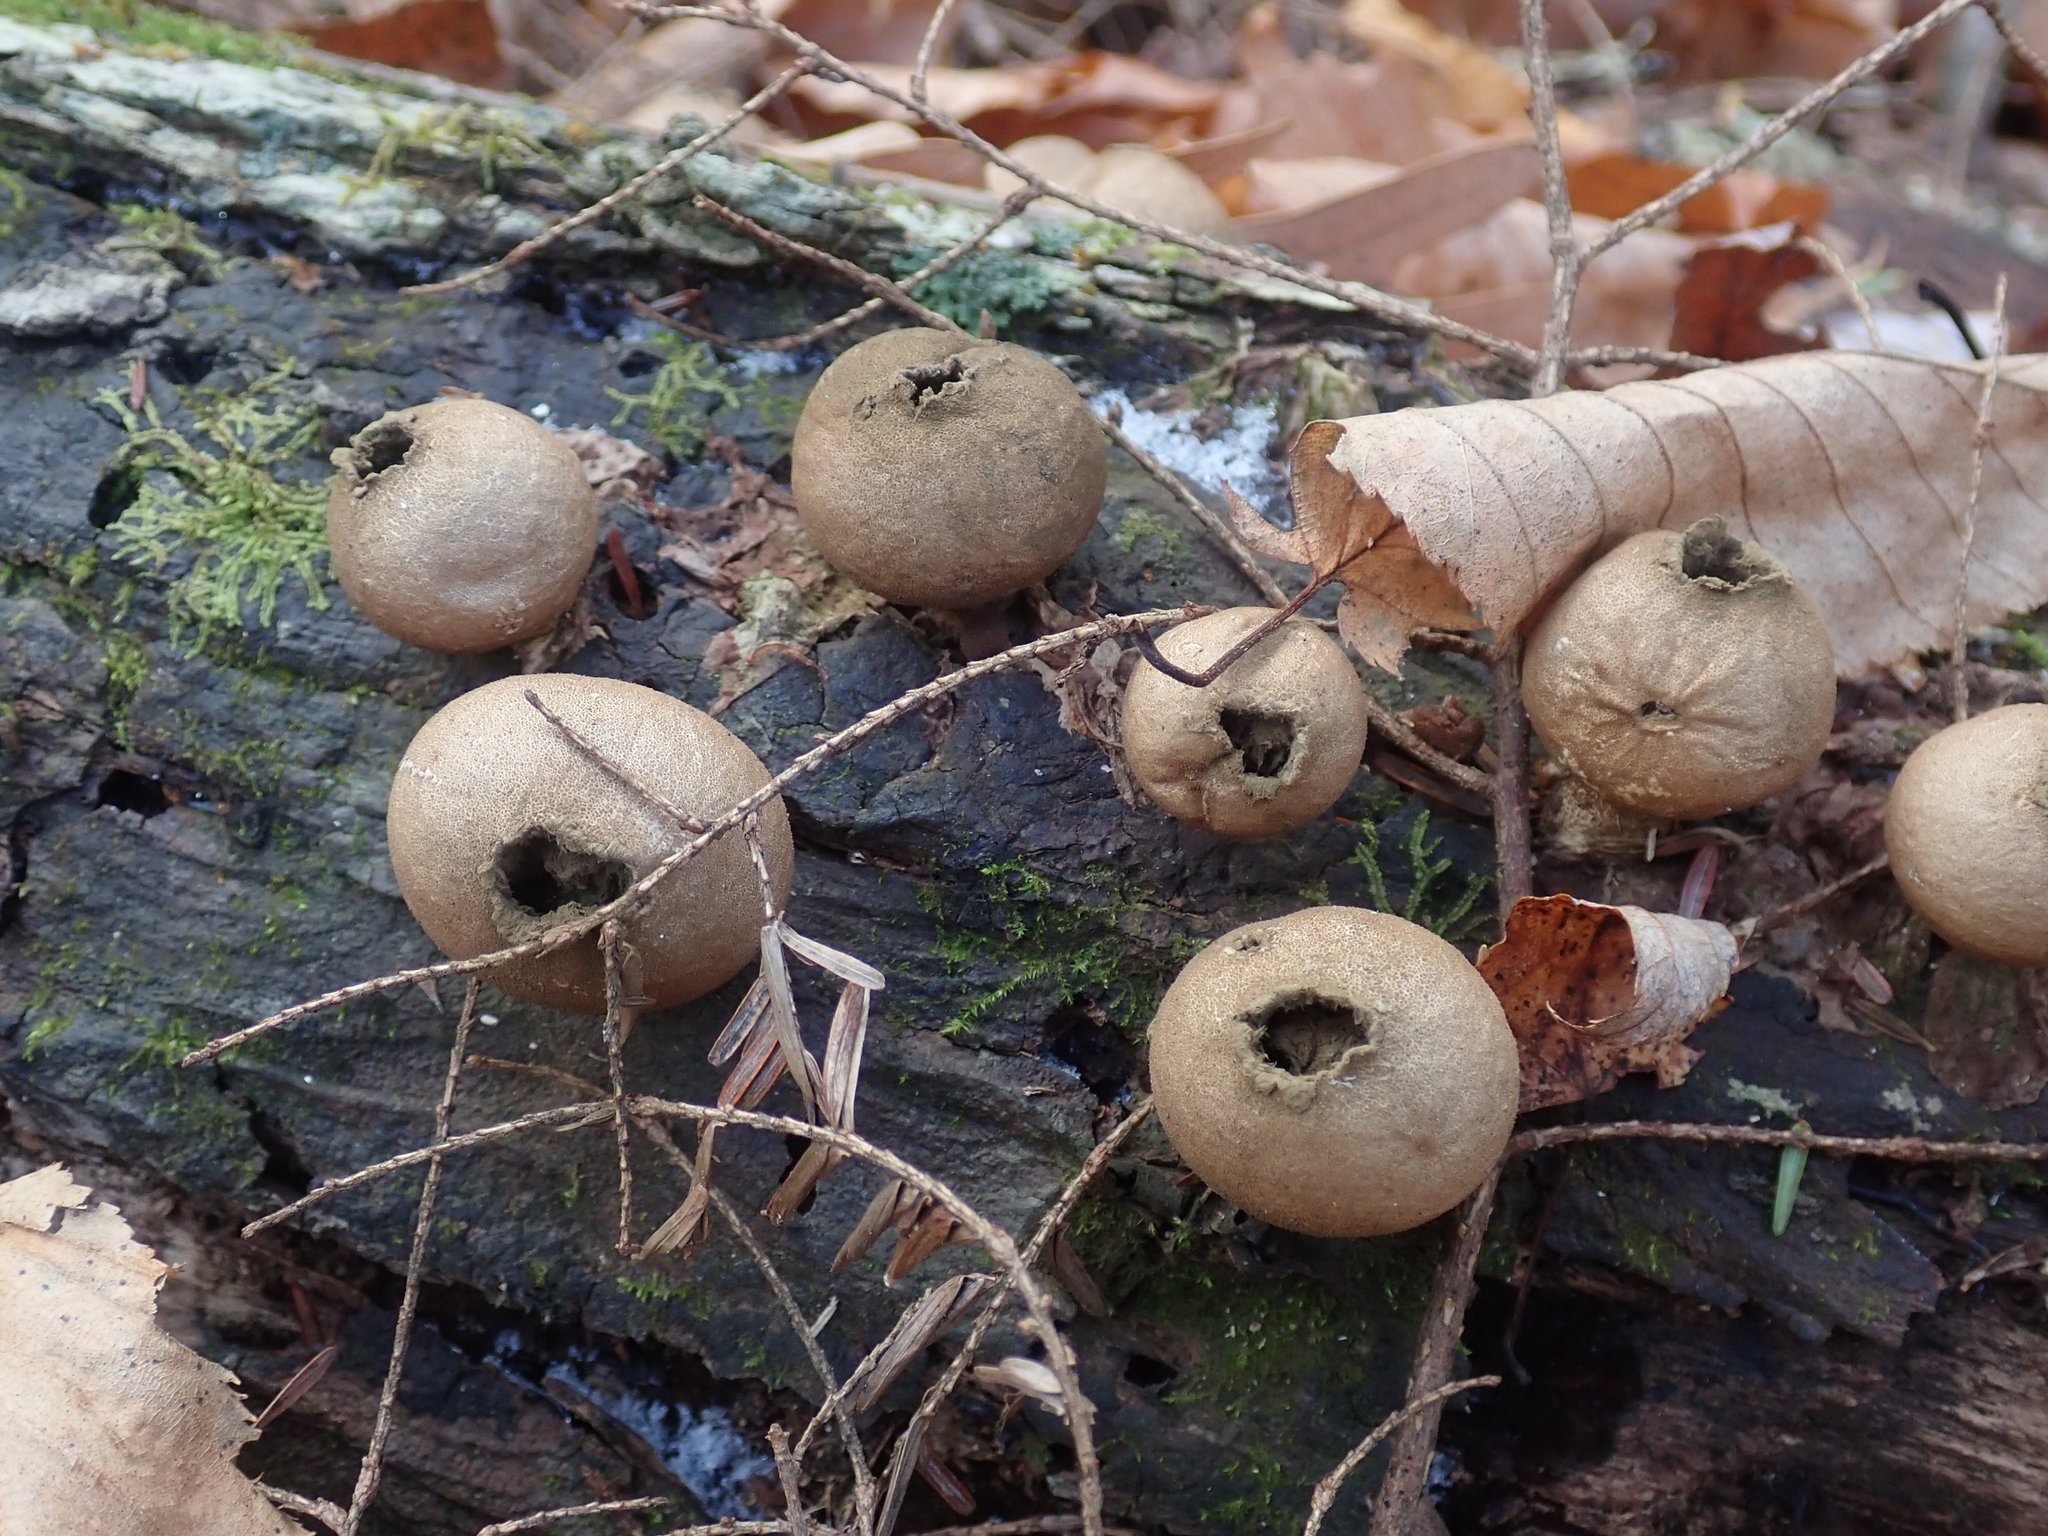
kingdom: Fungi
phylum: Basidiomycota
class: Agaricomycetes
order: Agaricales
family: Lycoperdaceae
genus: Apioperdon
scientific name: Apioperdon pyriforme
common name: Pear-shaped puffball
